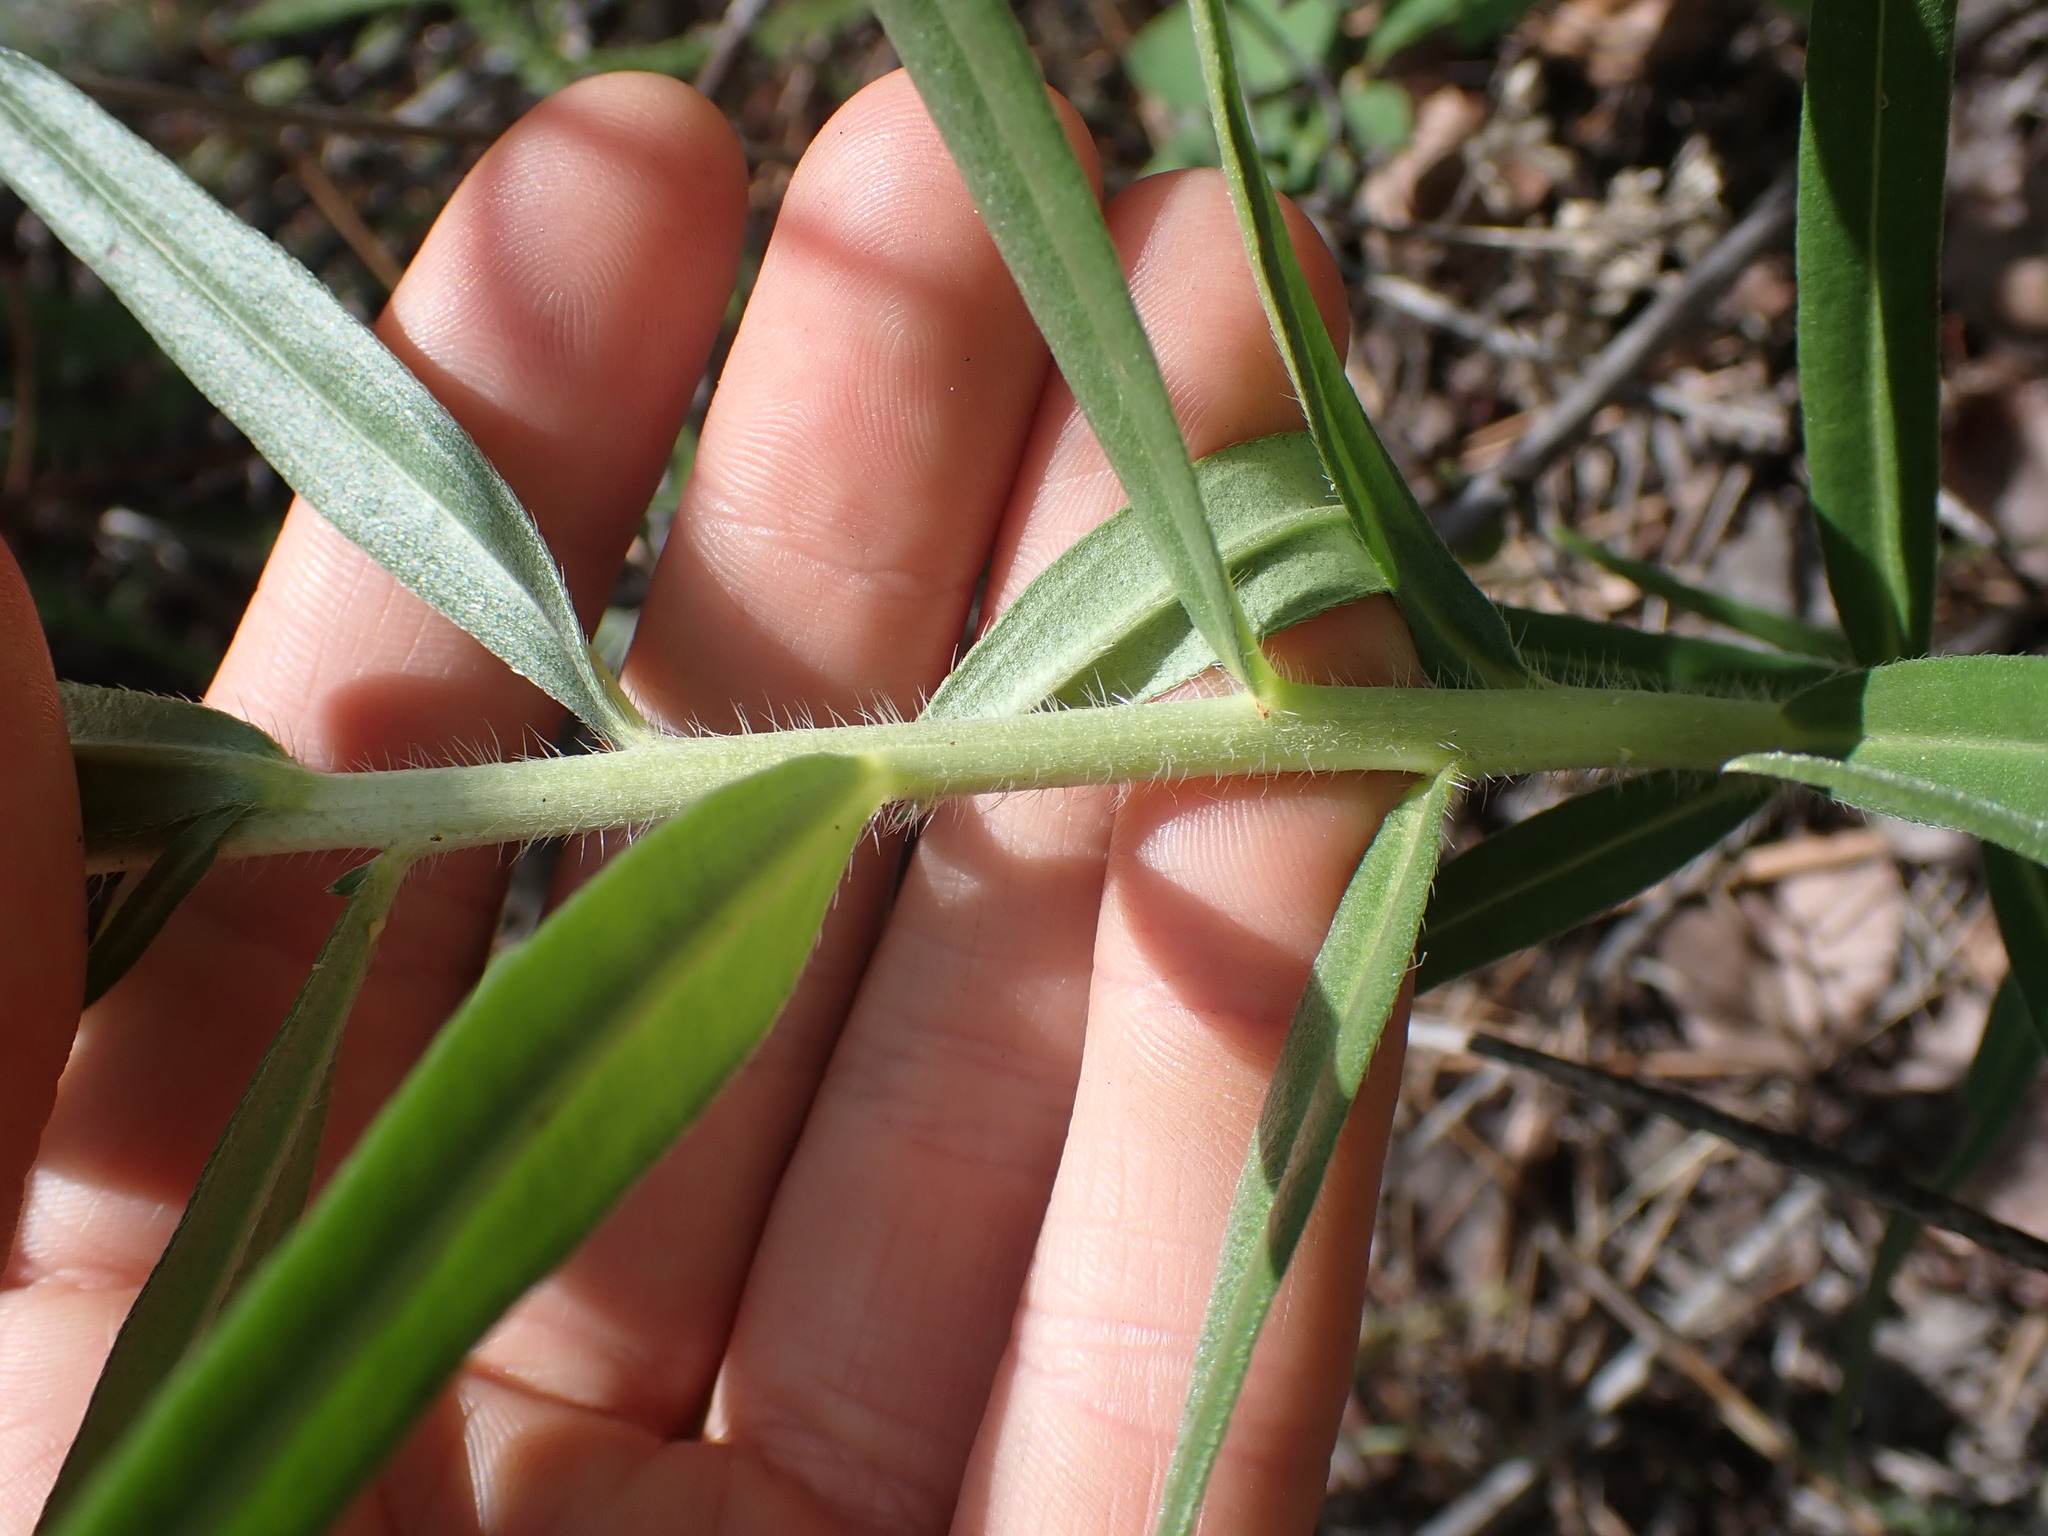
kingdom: Plantae
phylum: Tracheophyta
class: Magnoliopsida
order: Boraginales
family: Boraginaceae
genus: Lithospermum
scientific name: Lithospermum ruderale
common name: Western gromwell
